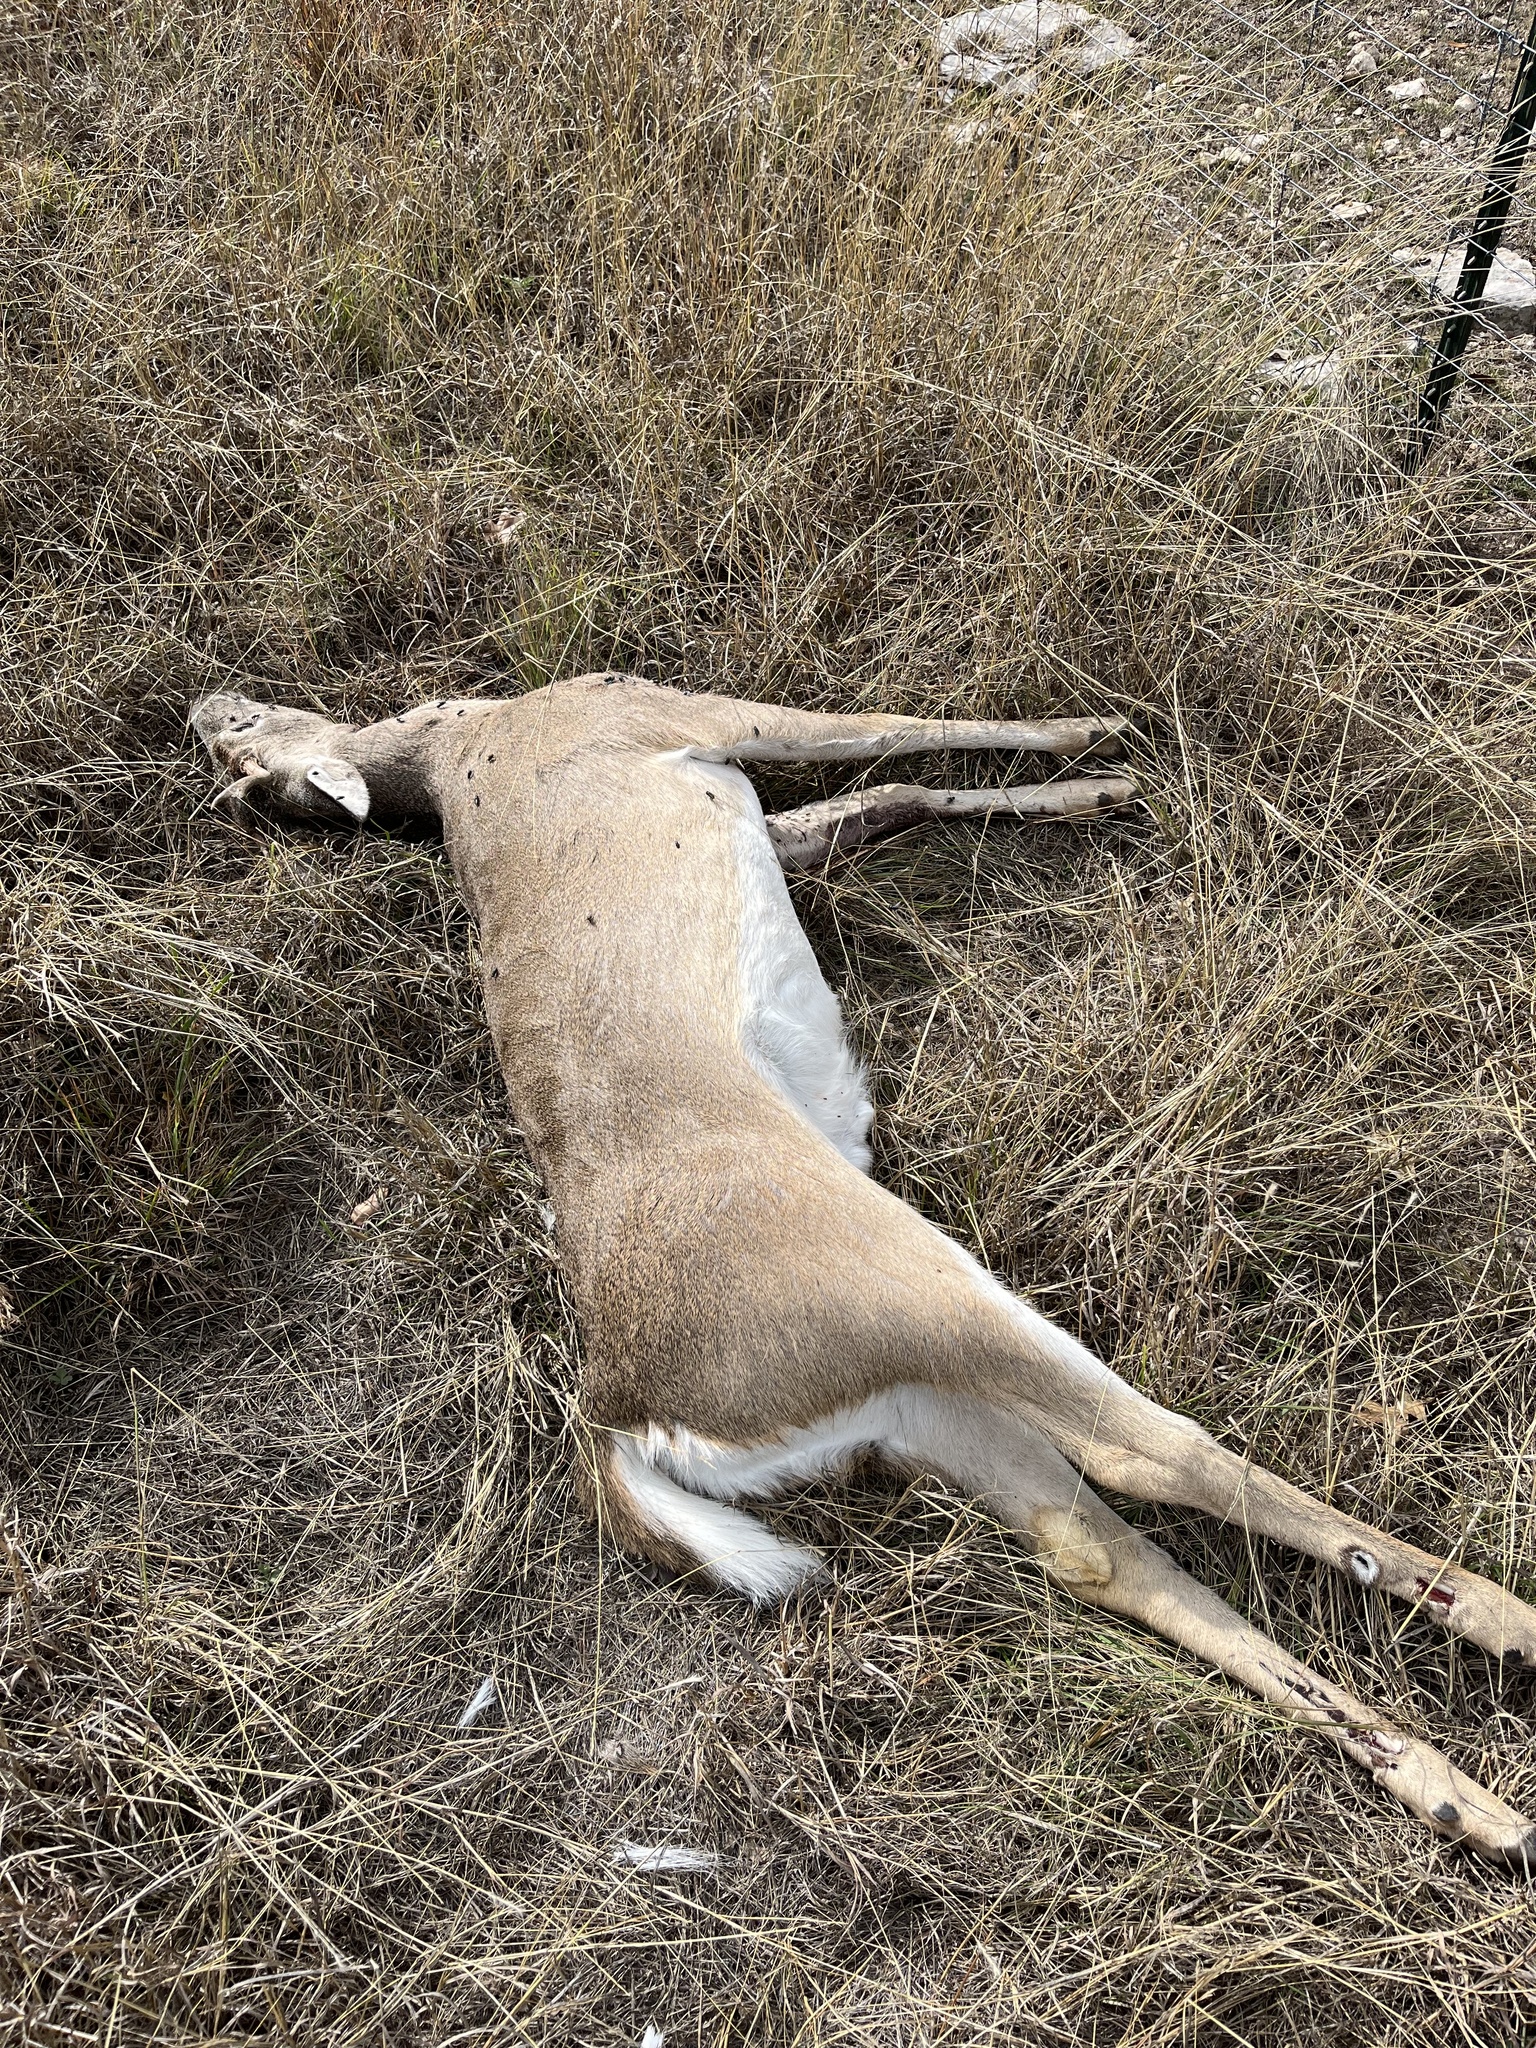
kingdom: Animalia
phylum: Chordata
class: Mammalia
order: Artiodactyla
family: Cervidae
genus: Odocoileus
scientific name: Odocoileus virginianus
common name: White-tailed deer
